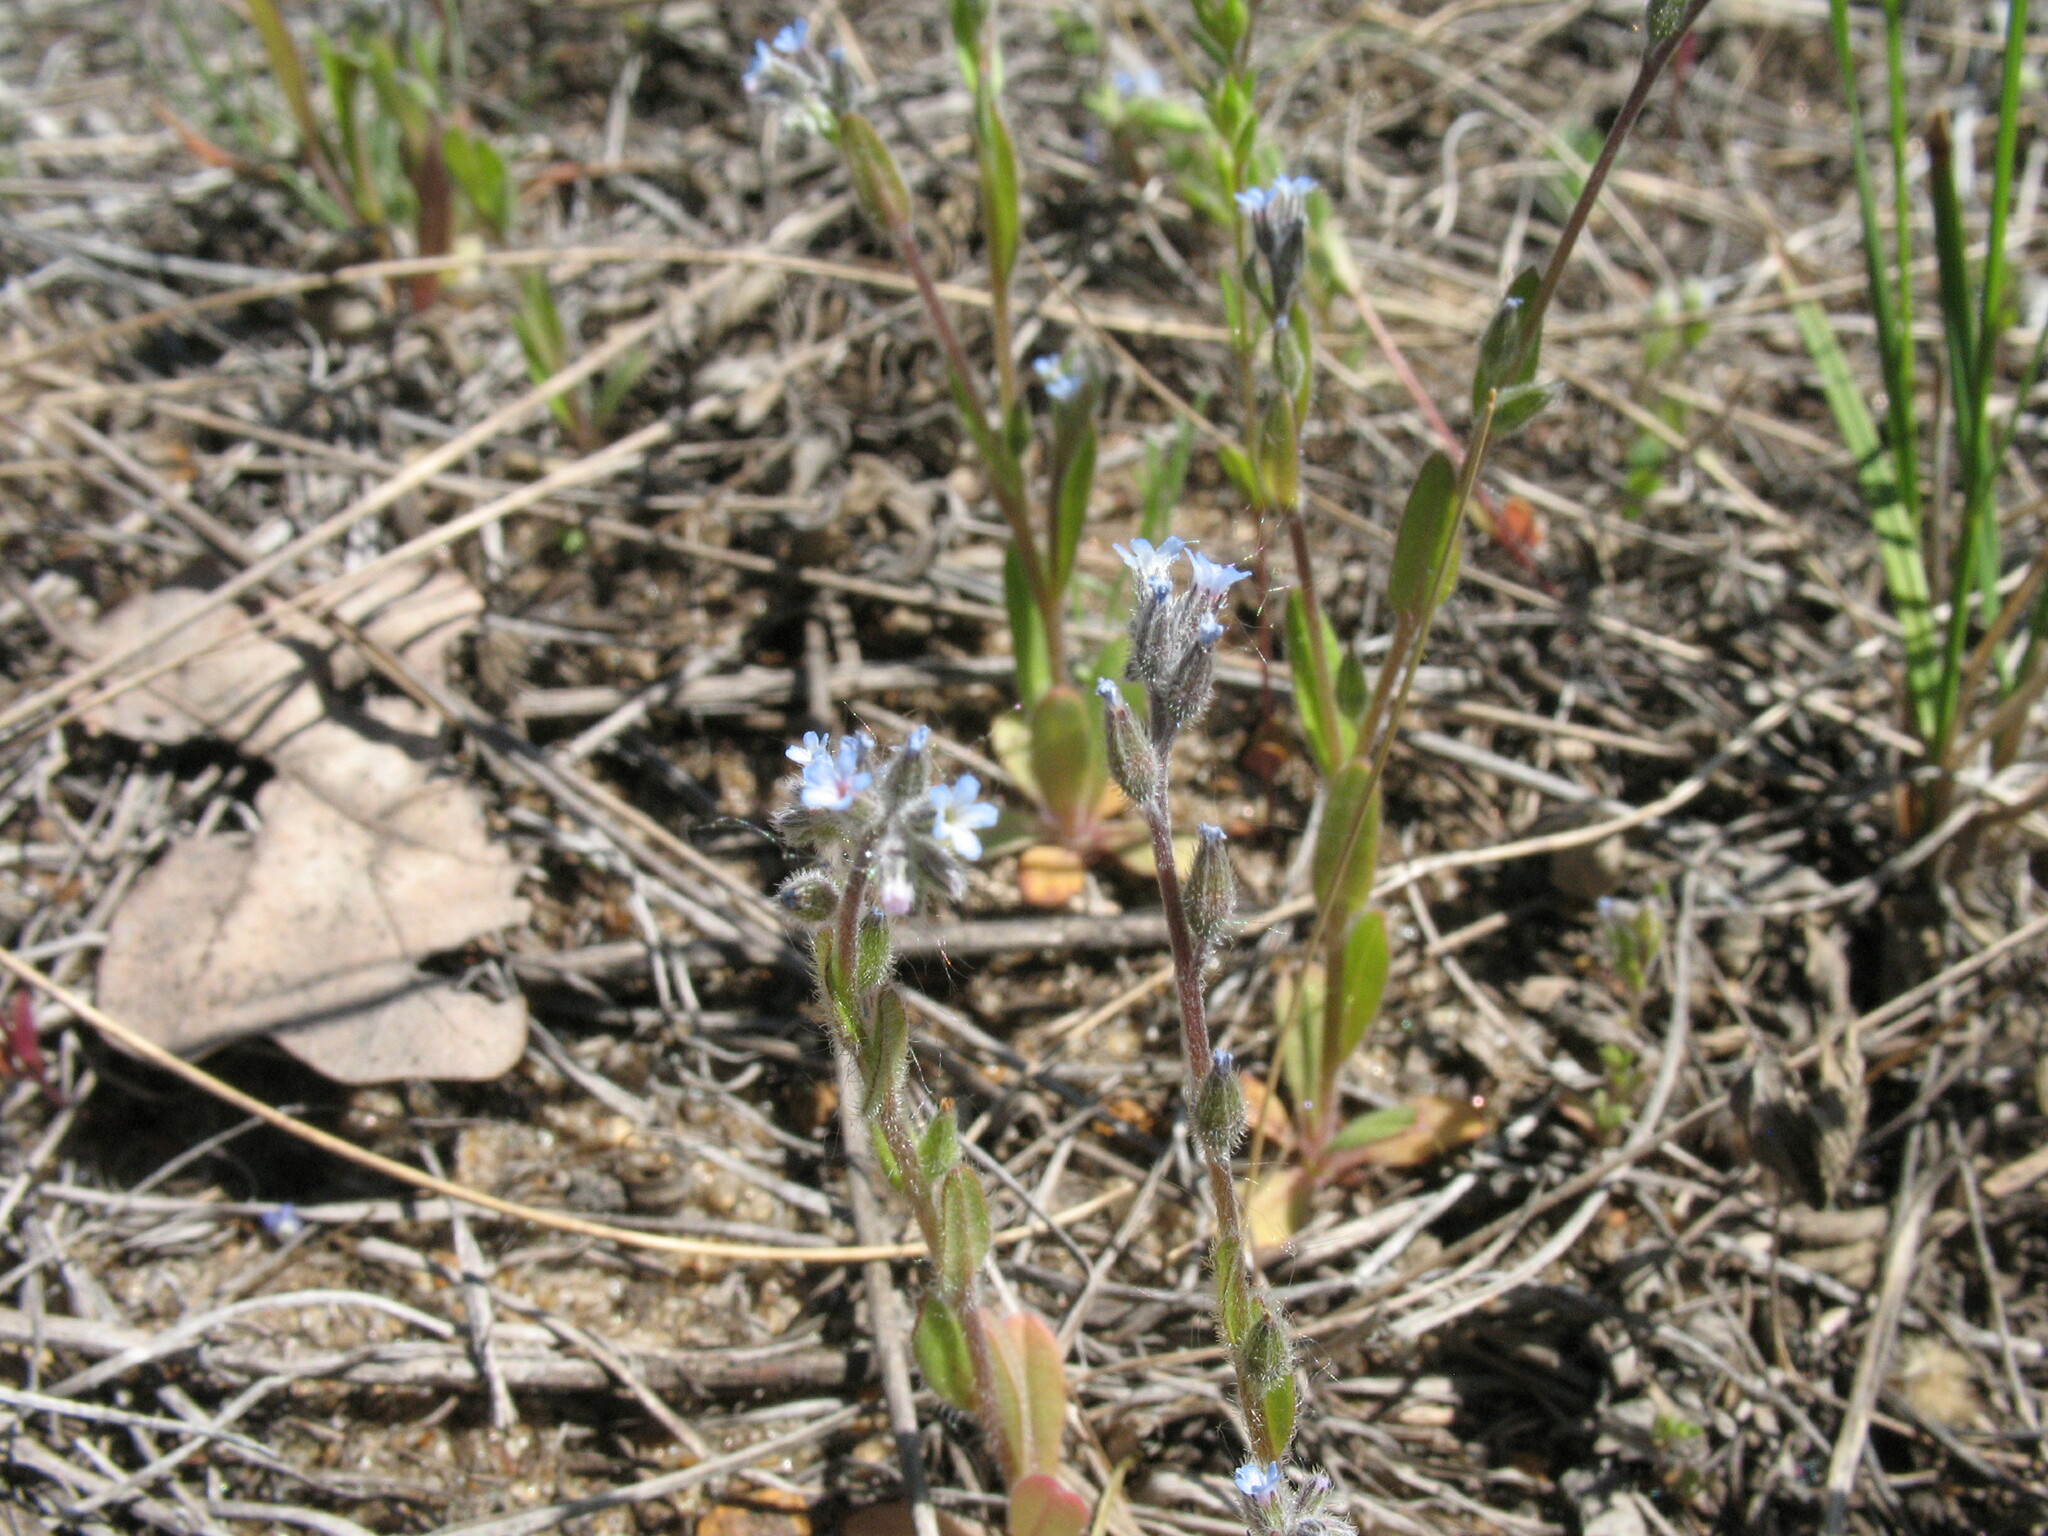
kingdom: Plantae
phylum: Tracheophyta
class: Magnoliopsida
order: Boraginales
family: Boraginaceae
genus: Myosotis
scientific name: Myosotis stricta
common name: Strict forget-me-not
